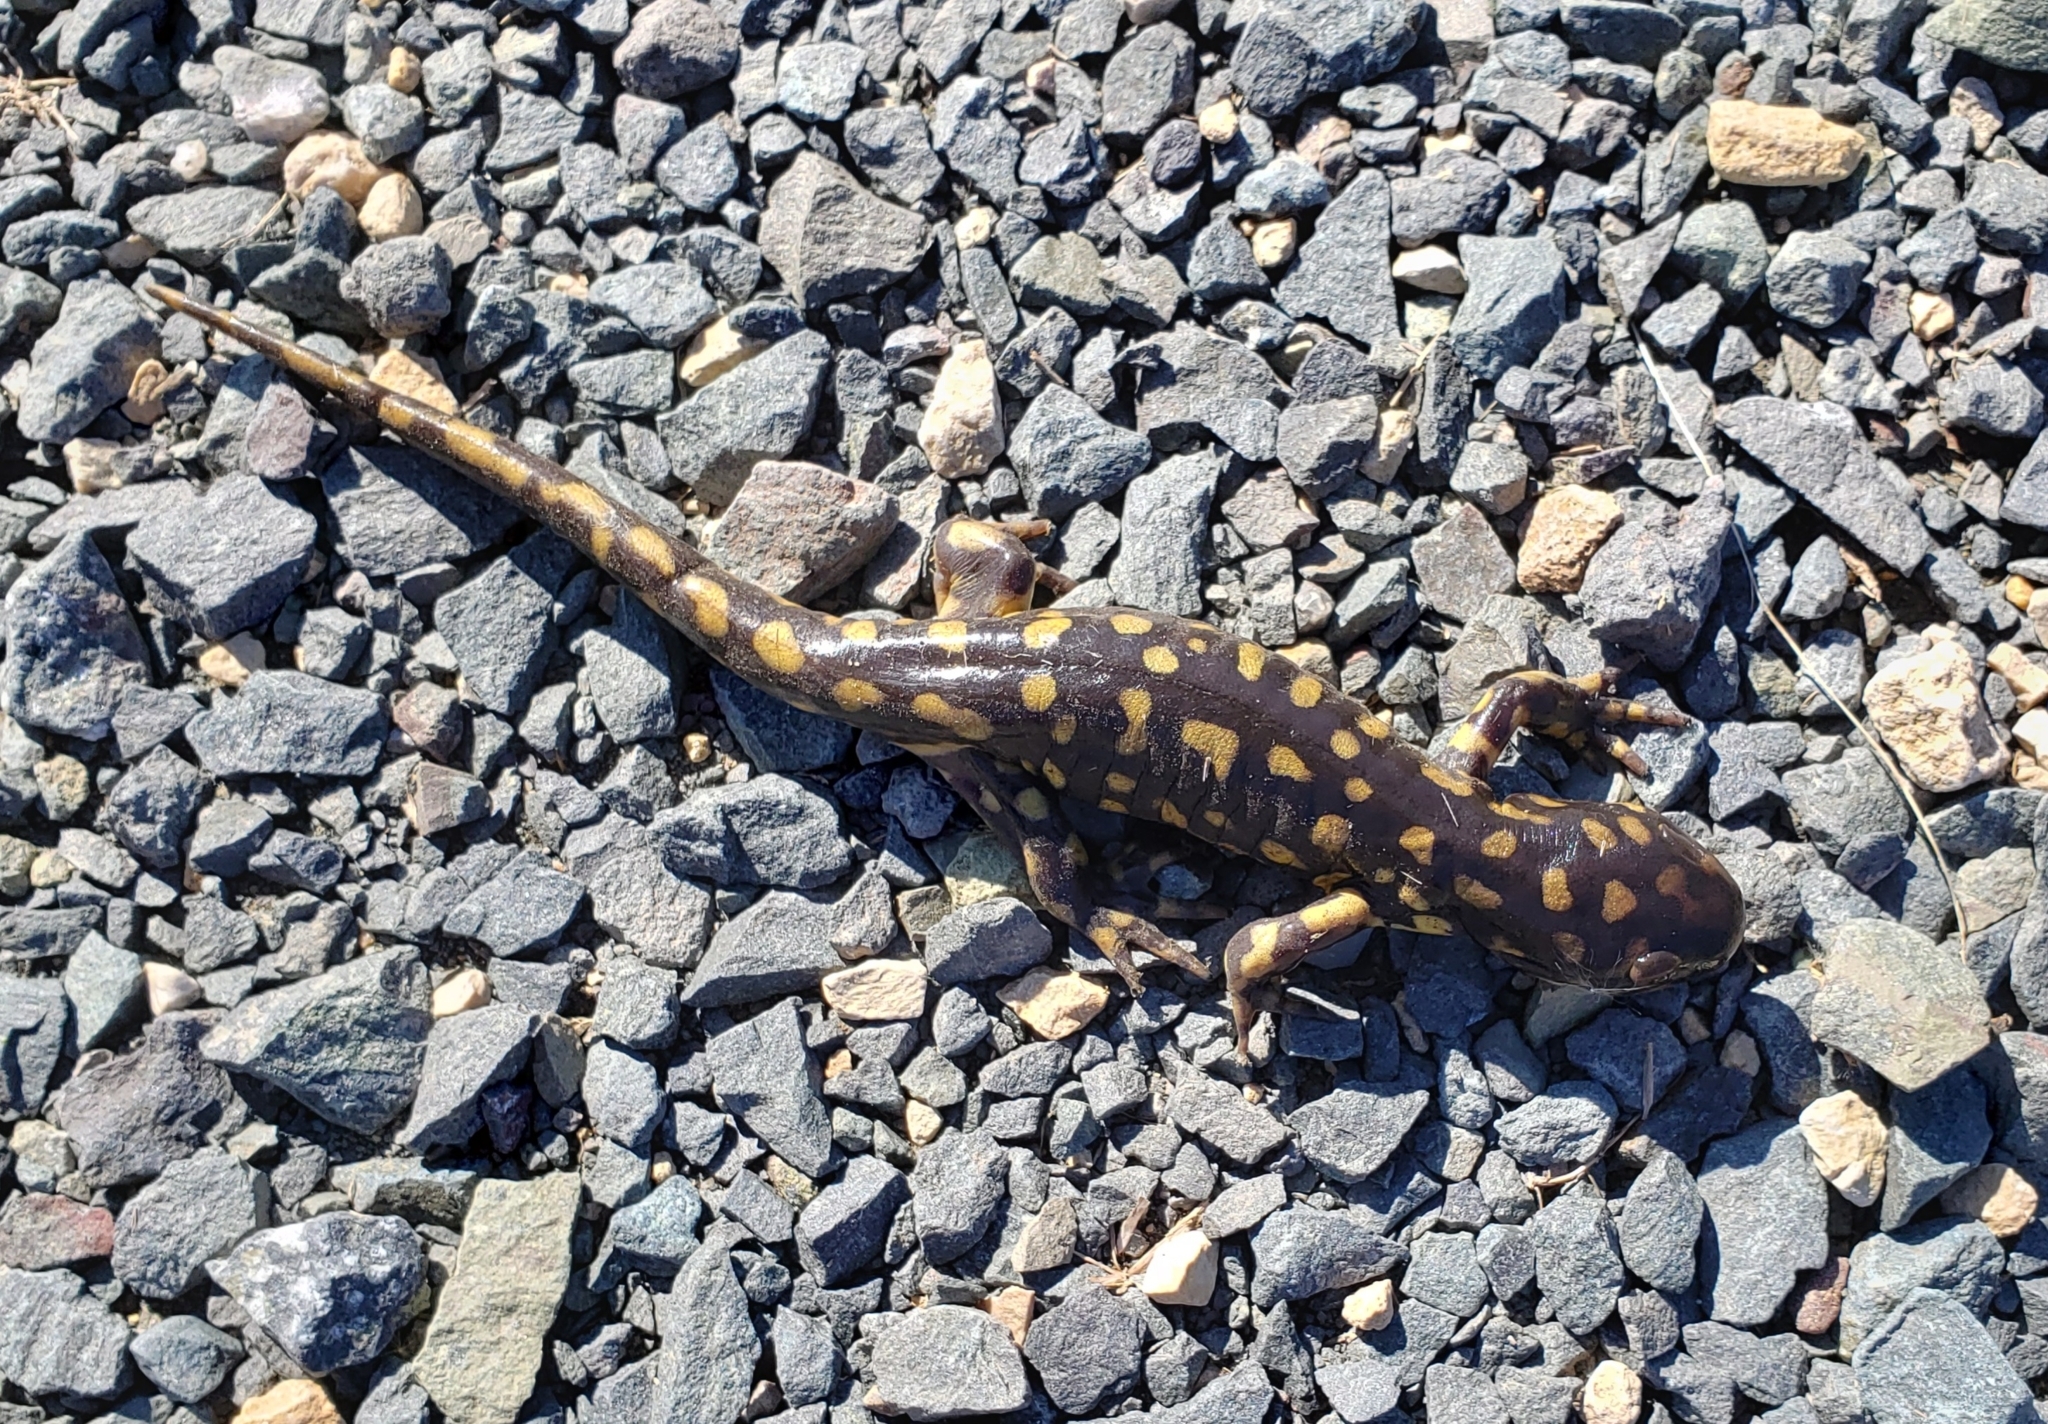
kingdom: Animalia
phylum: Chordata
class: Amphibia
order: Caudata
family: Ambystomatidae
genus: Ambystoma
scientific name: Ambystoma tigrinum
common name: Tiger salamander
